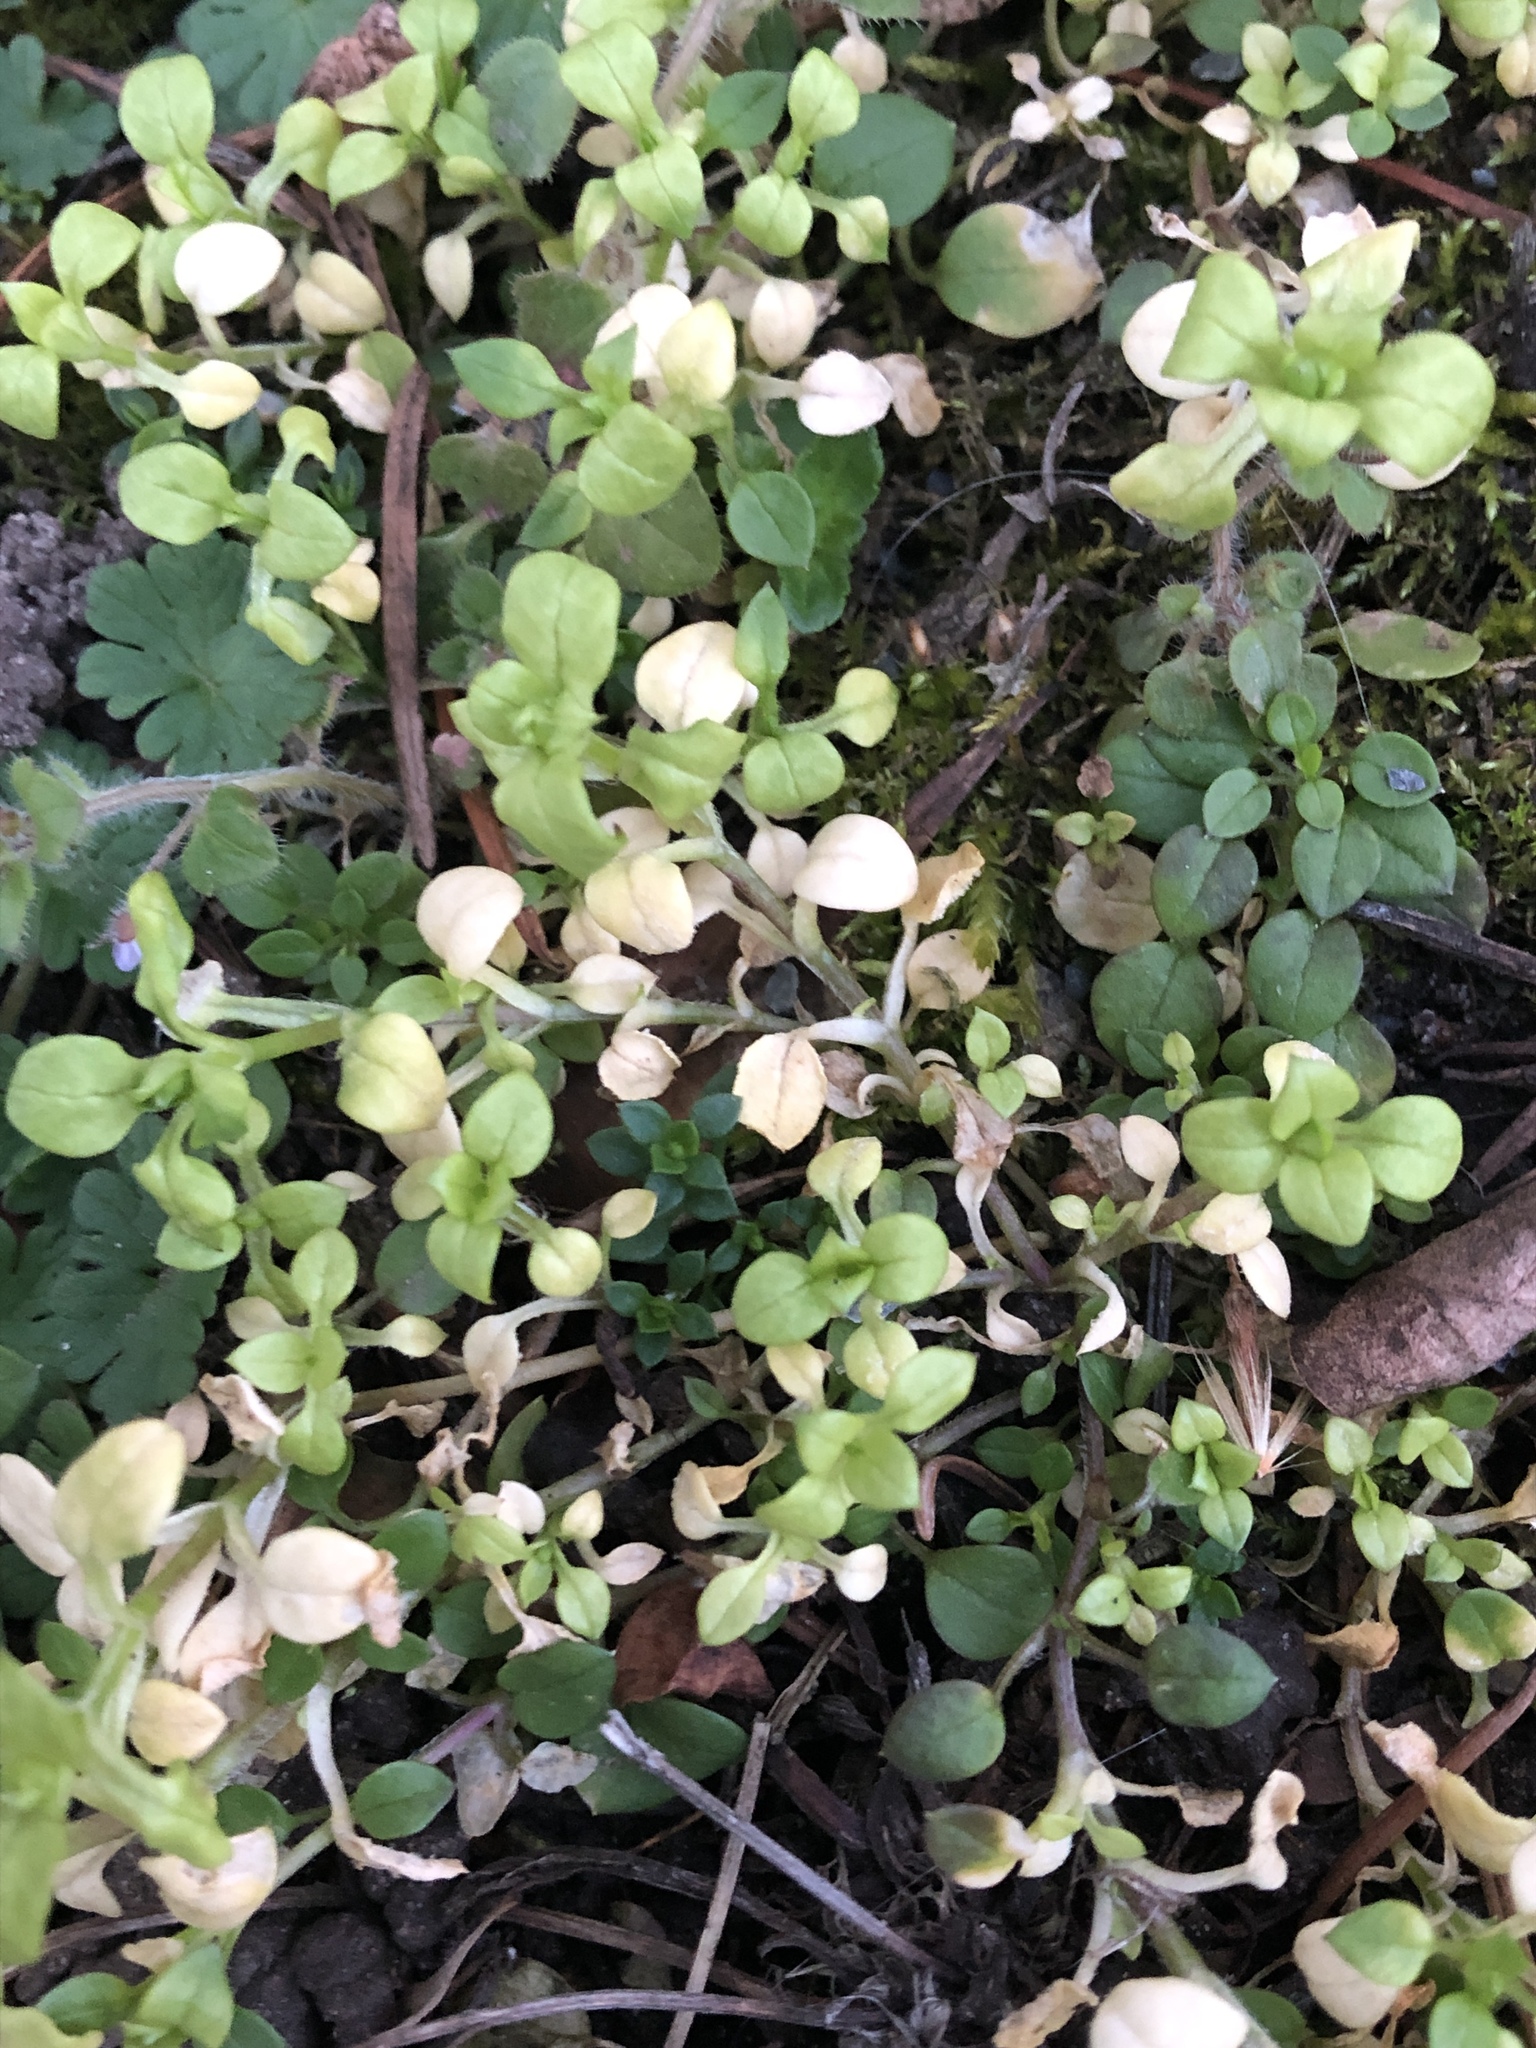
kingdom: Plantae
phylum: Tracheophyta
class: Magnoliopsida
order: Caryophyllales
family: Caryophyllaceae
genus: Stellaria
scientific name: Stellaria media
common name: Common chickweed
